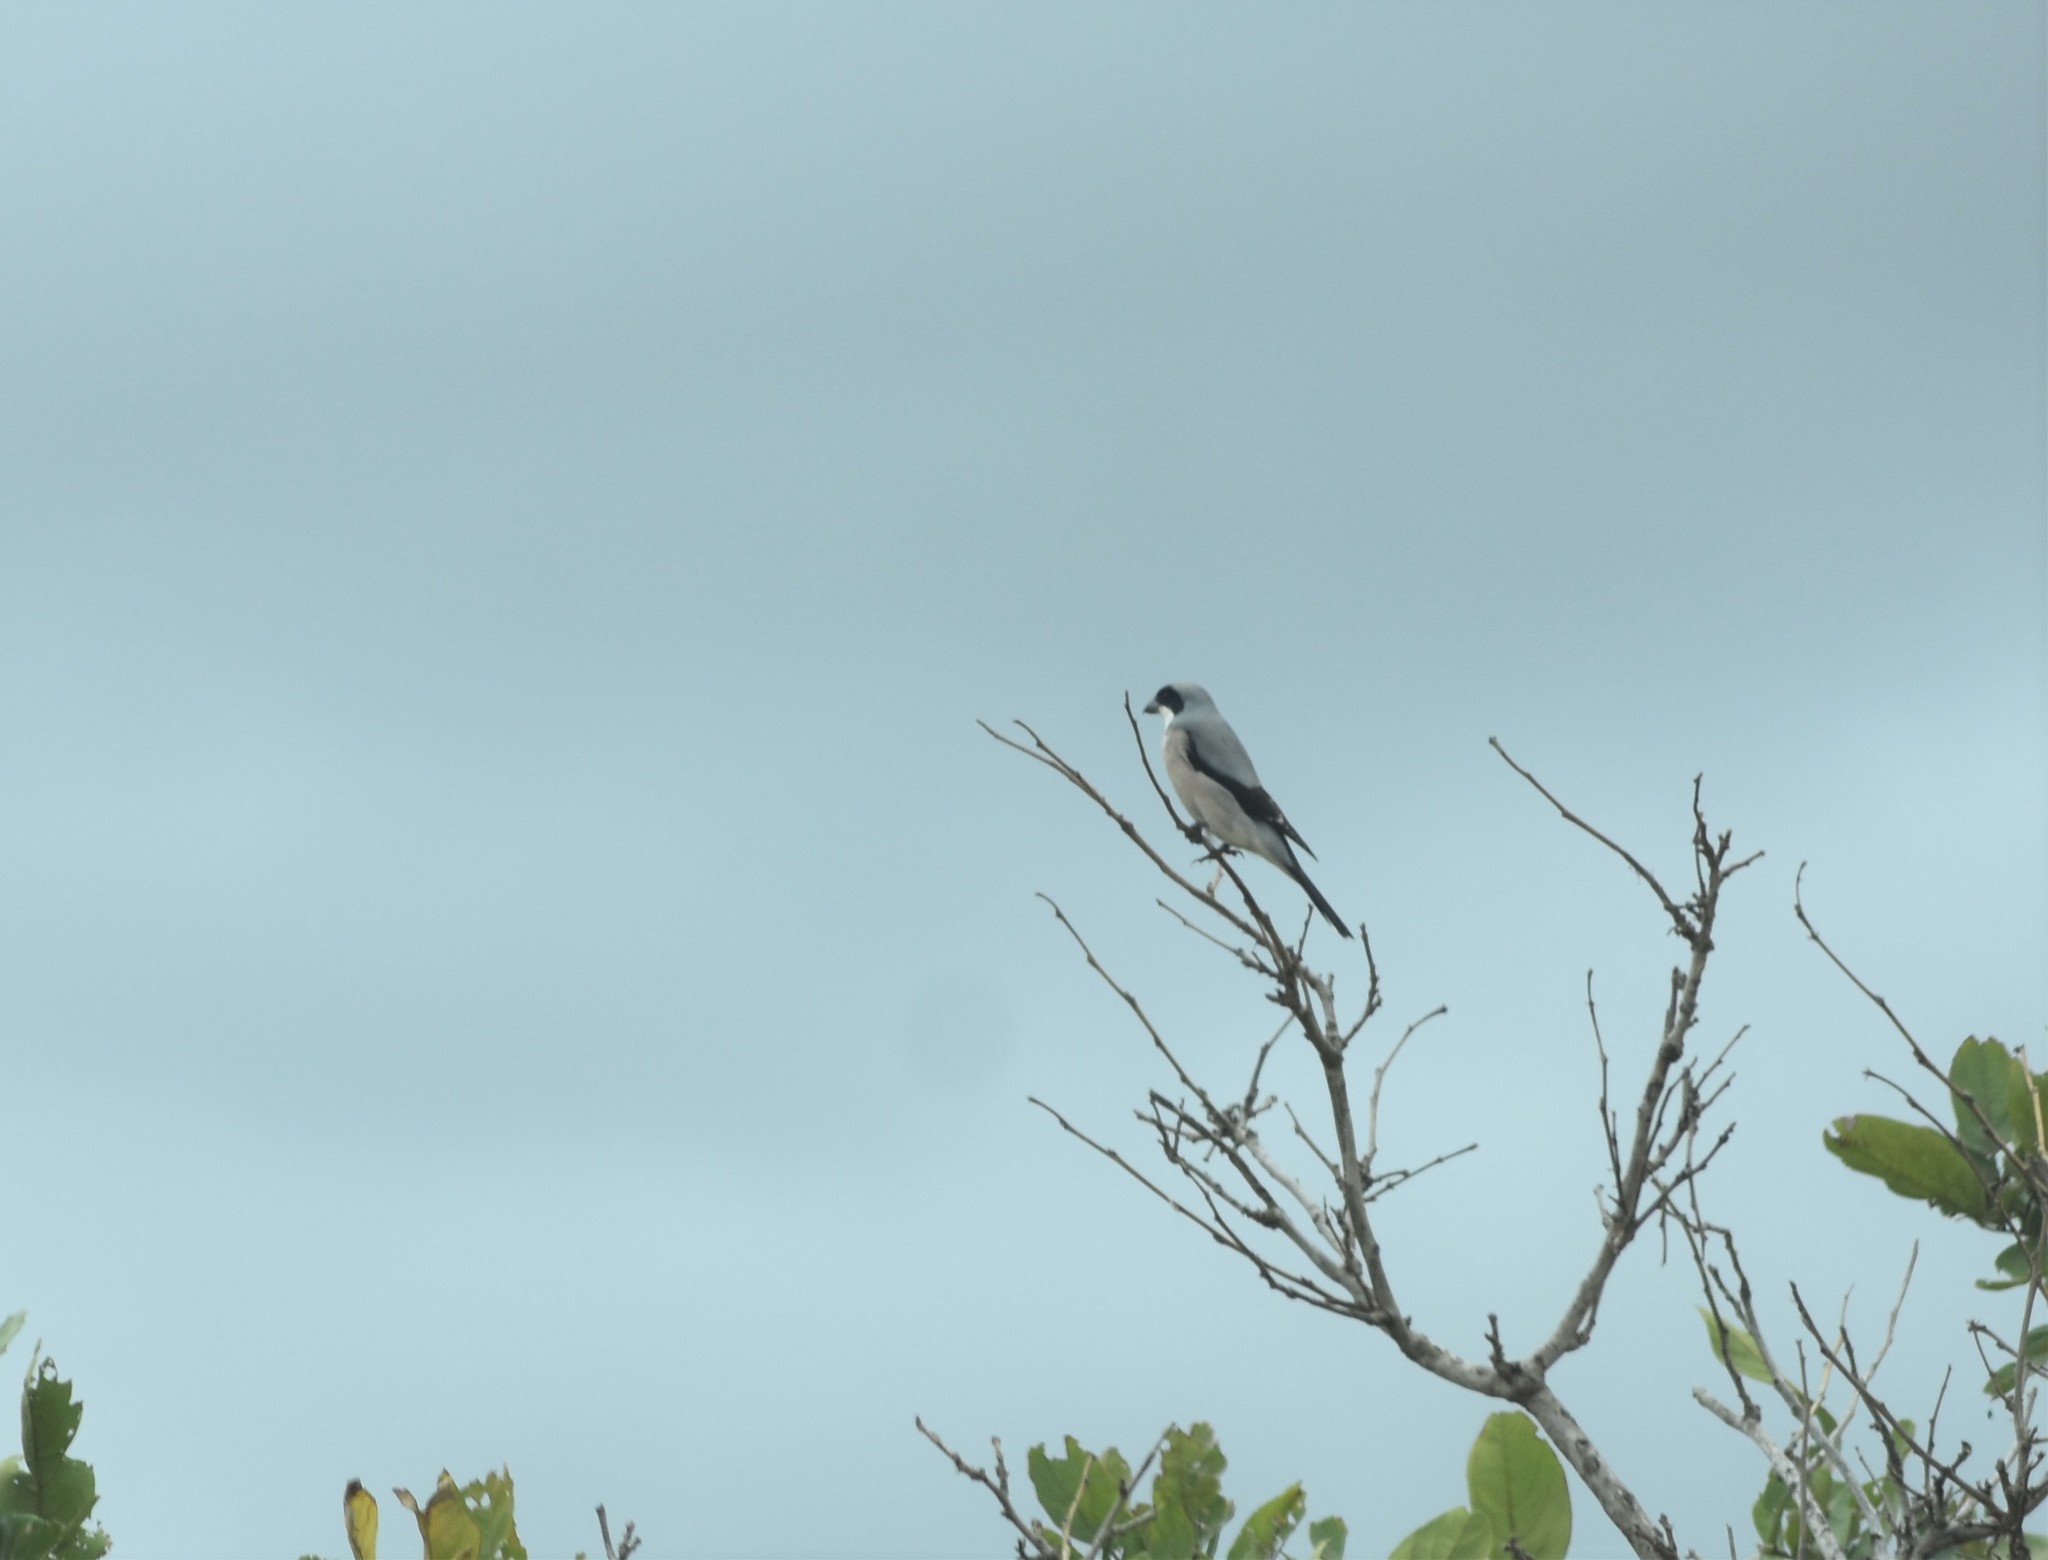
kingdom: Animalia
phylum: Chordata
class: Aves
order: Passeriformes
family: Laniidae
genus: Lanius
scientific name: Lanius minor
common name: Lesser grey shrike
